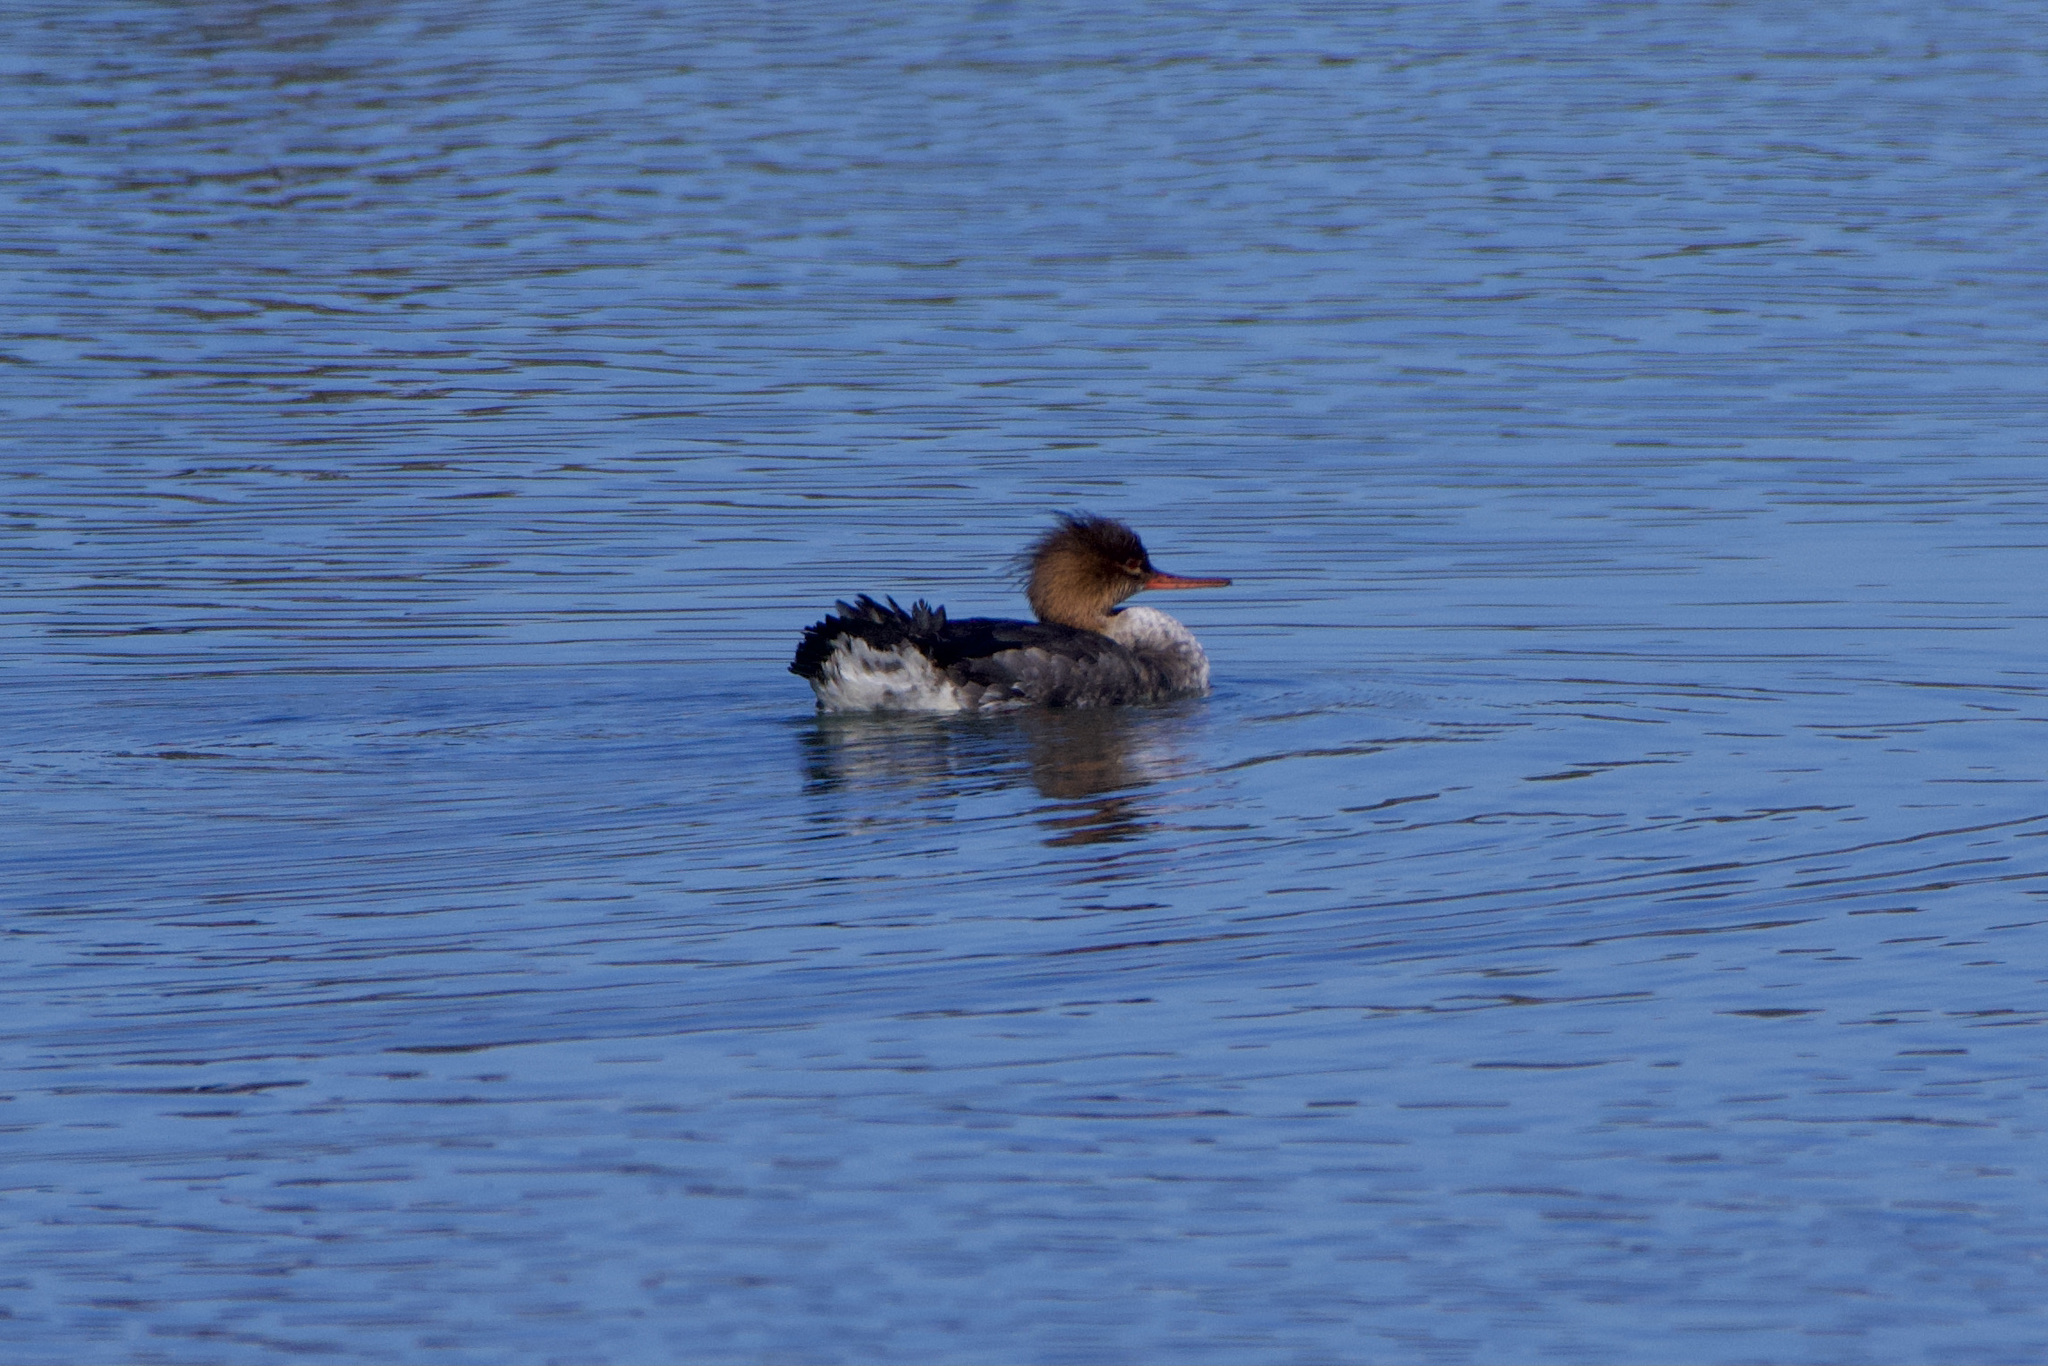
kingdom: Animalia
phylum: Chordata
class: Aves
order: Anseriformes
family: Anatidae
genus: Mergus
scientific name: Mergus serrator
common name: Red-breasted merganser
